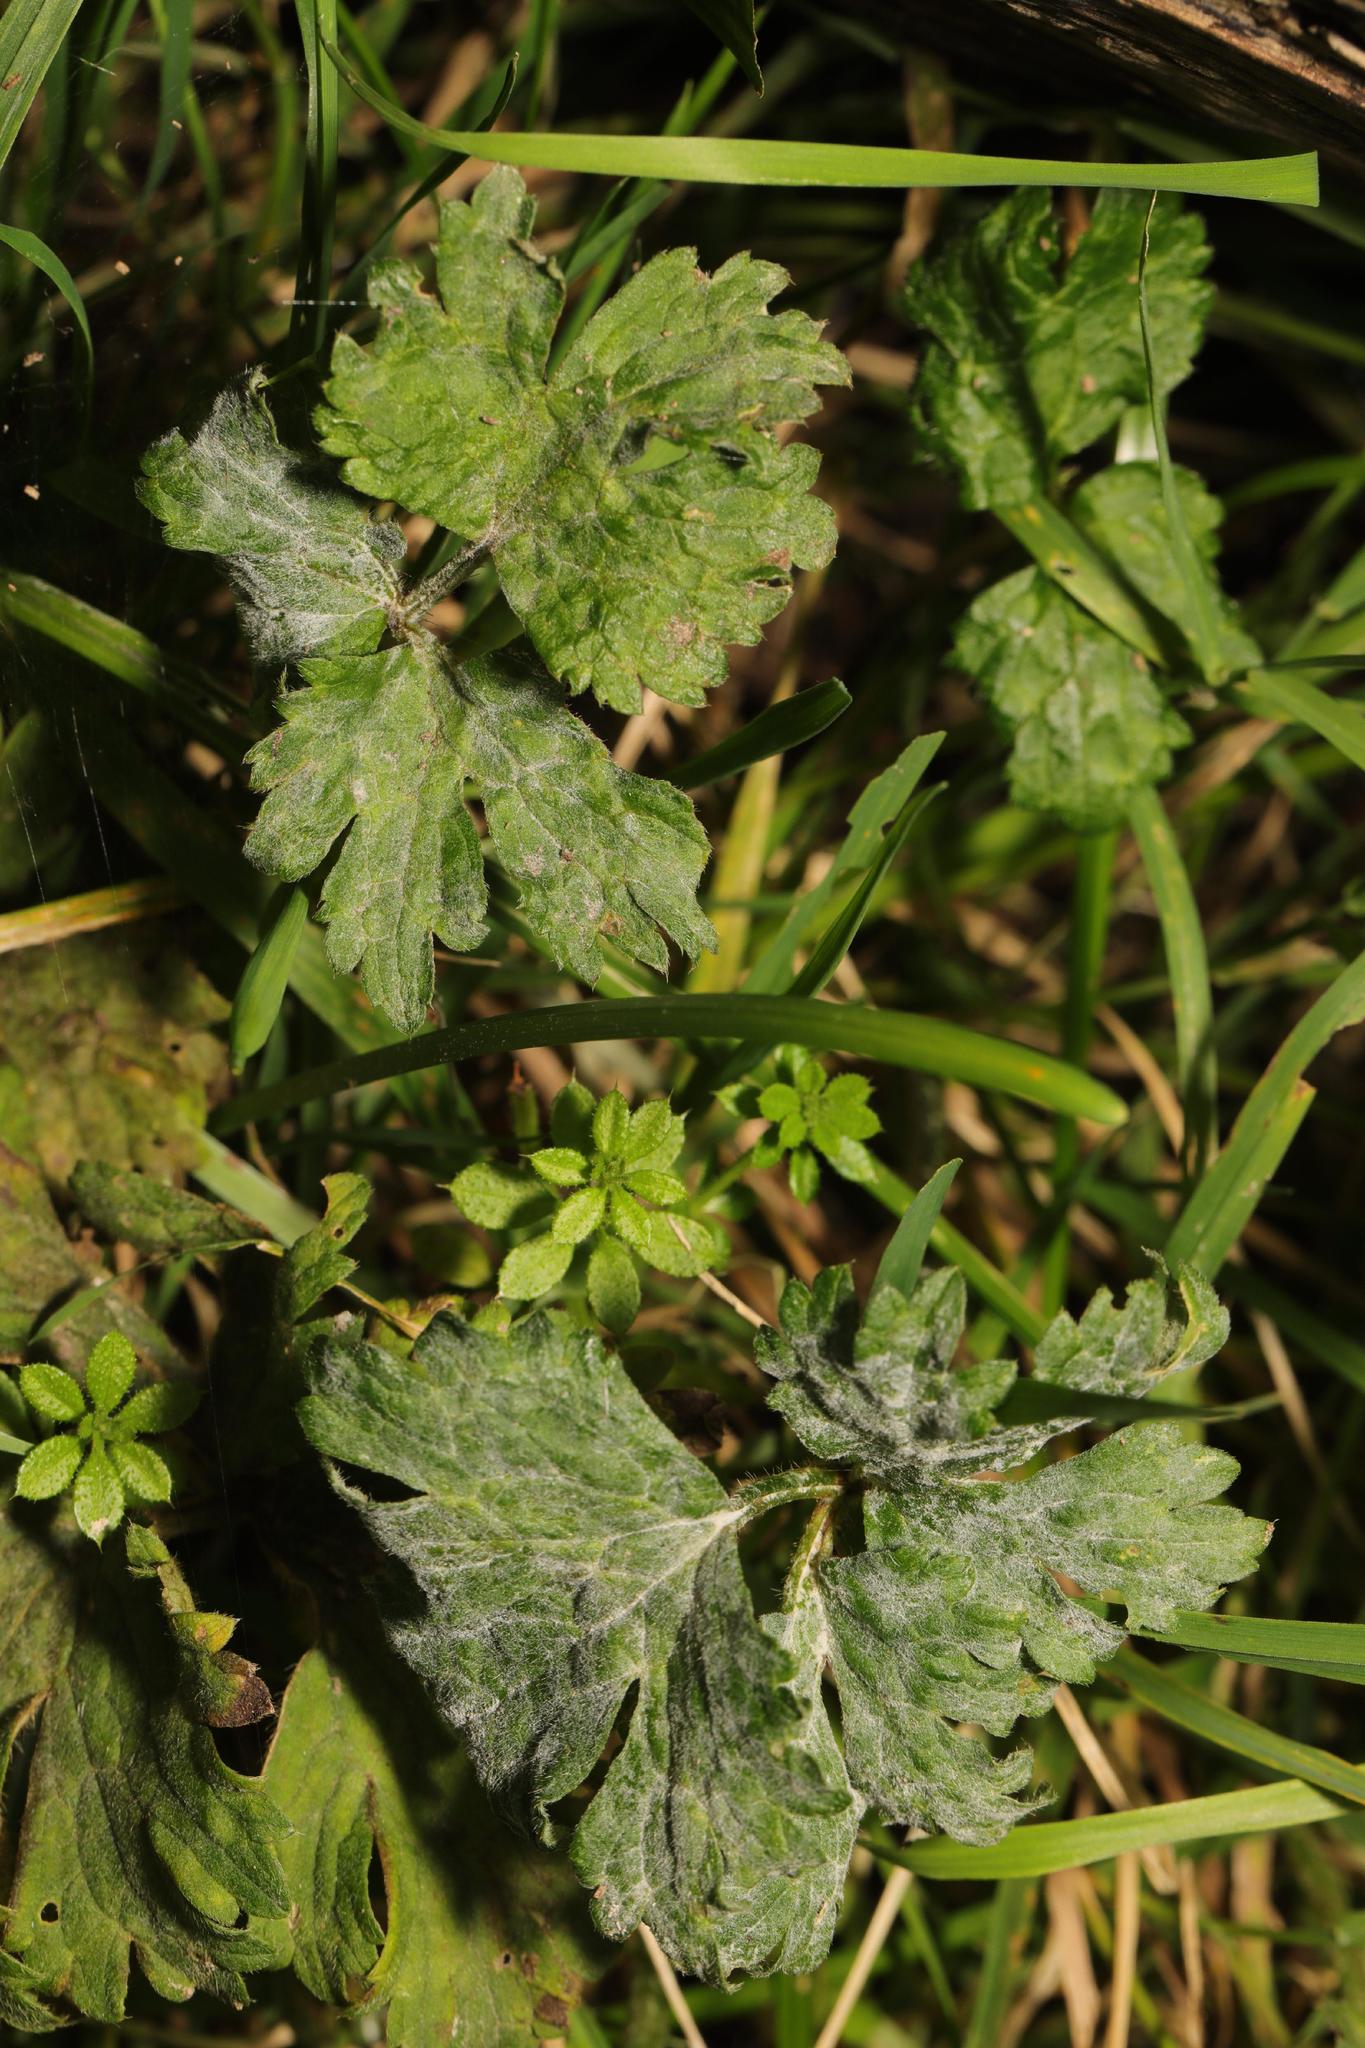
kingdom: Plantae
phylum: Tracheophyta
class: Magnoliopsida
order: Ranunculales
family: Ranunculaceae
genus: Ranunculus
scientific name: Ranunculus repens
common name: Creeping buttercup
